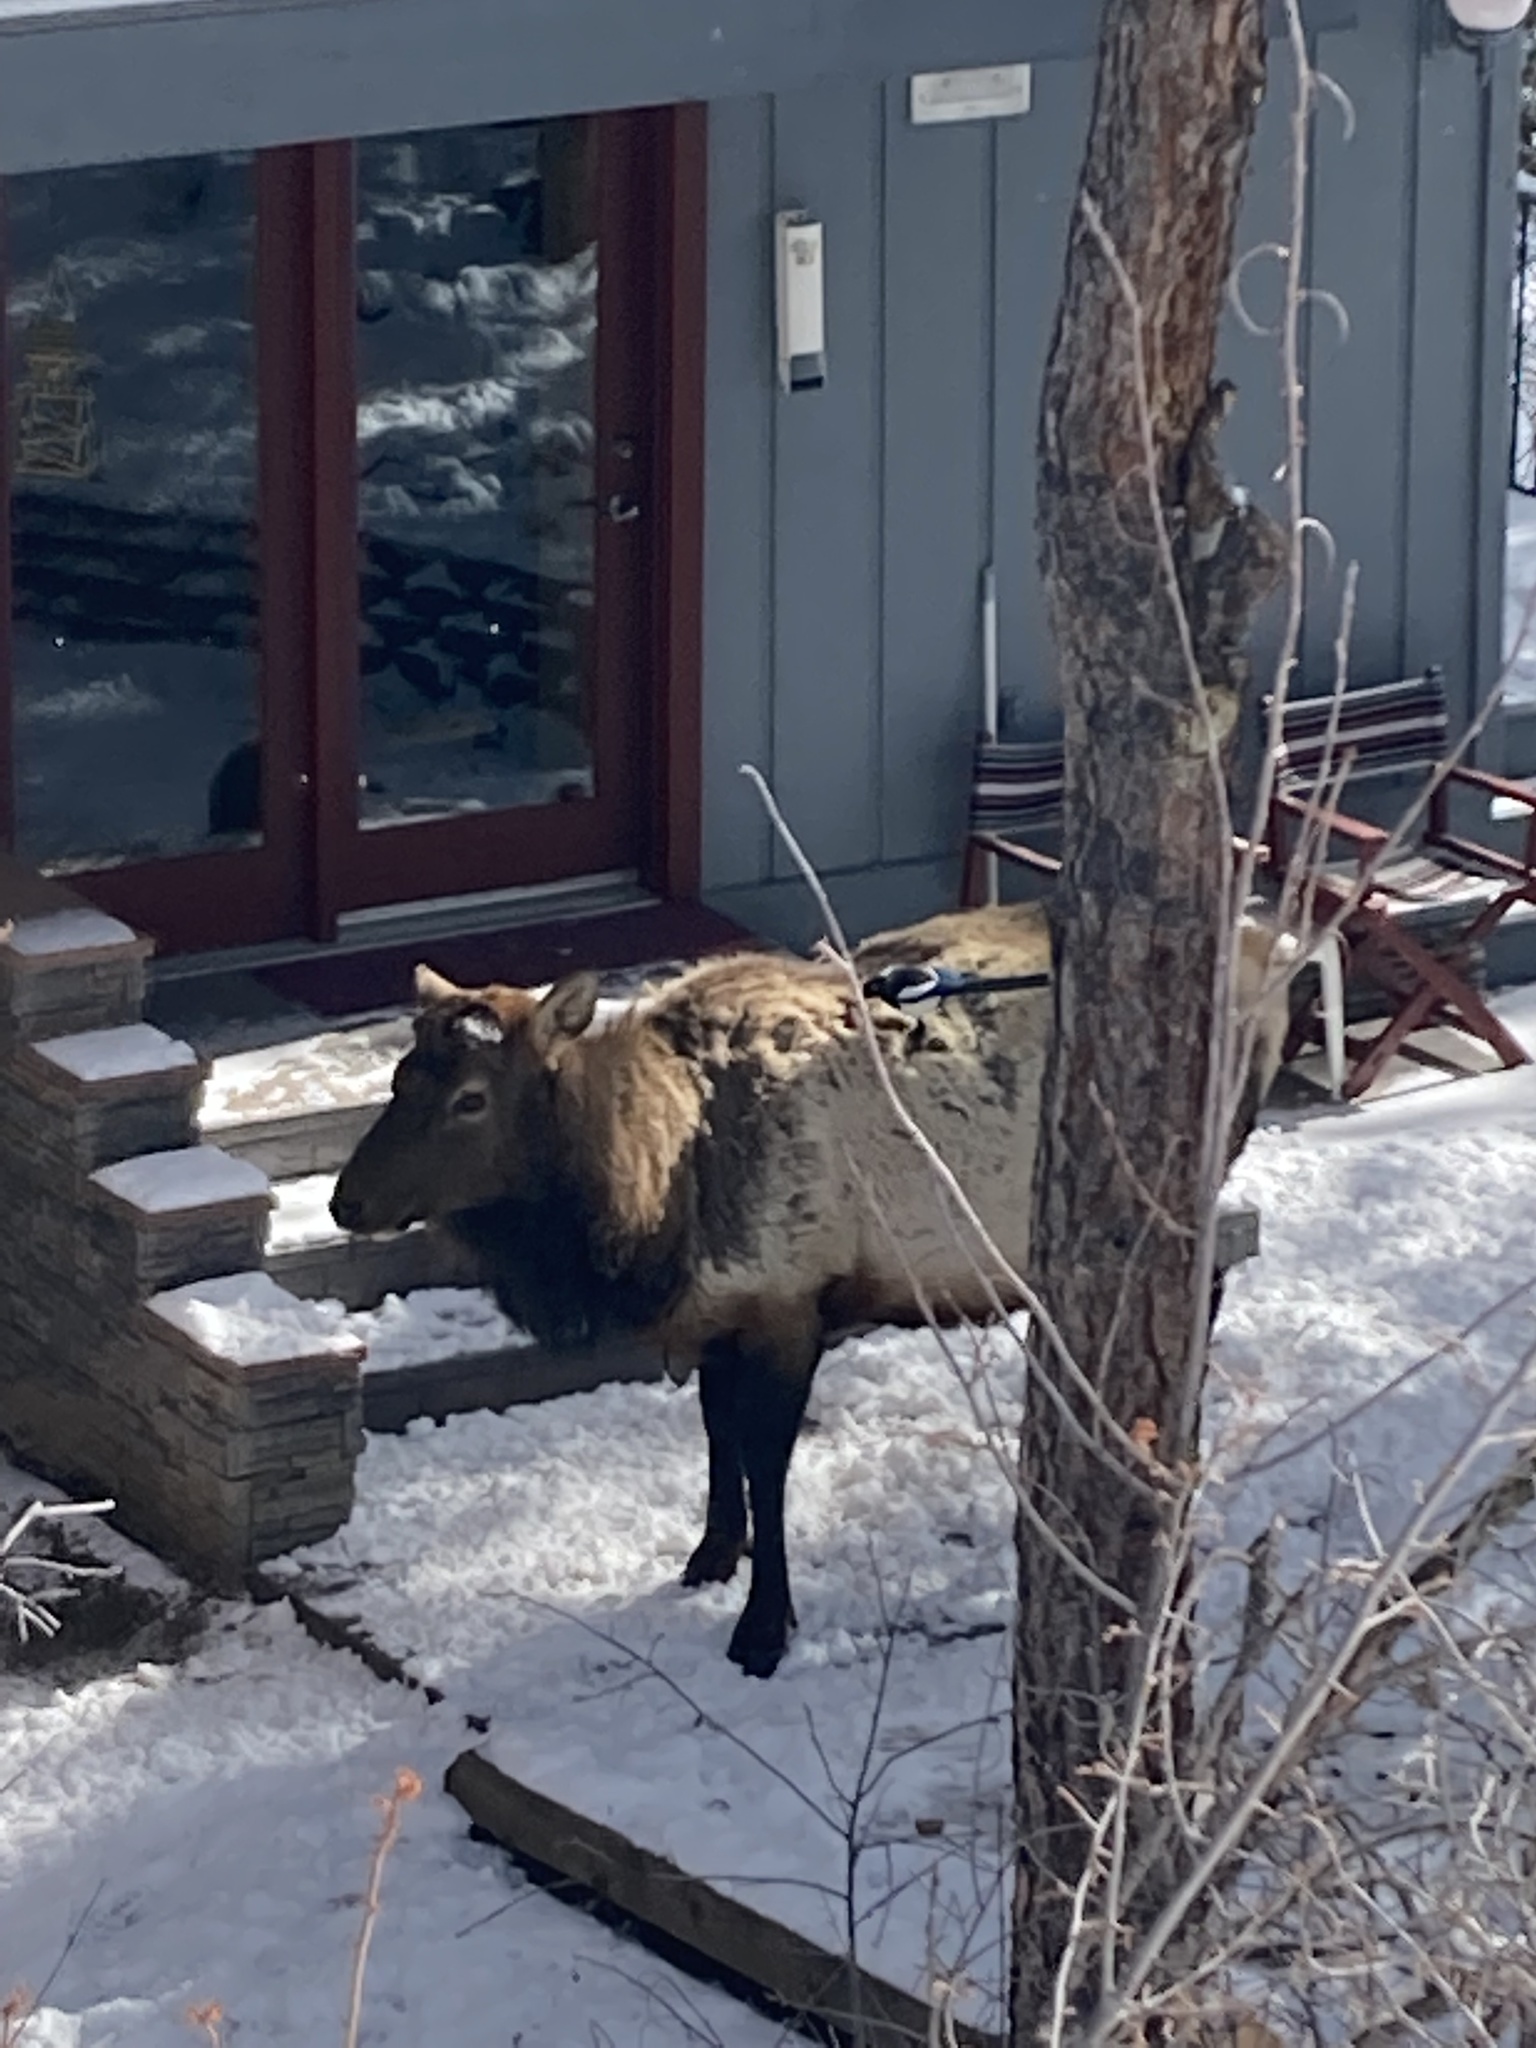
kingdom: Animalia
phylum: Chordata
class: Mammalia
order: Artiodactyla
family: Cervidae
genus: Cervus
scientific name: Cervus elaphus
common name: Red deer
